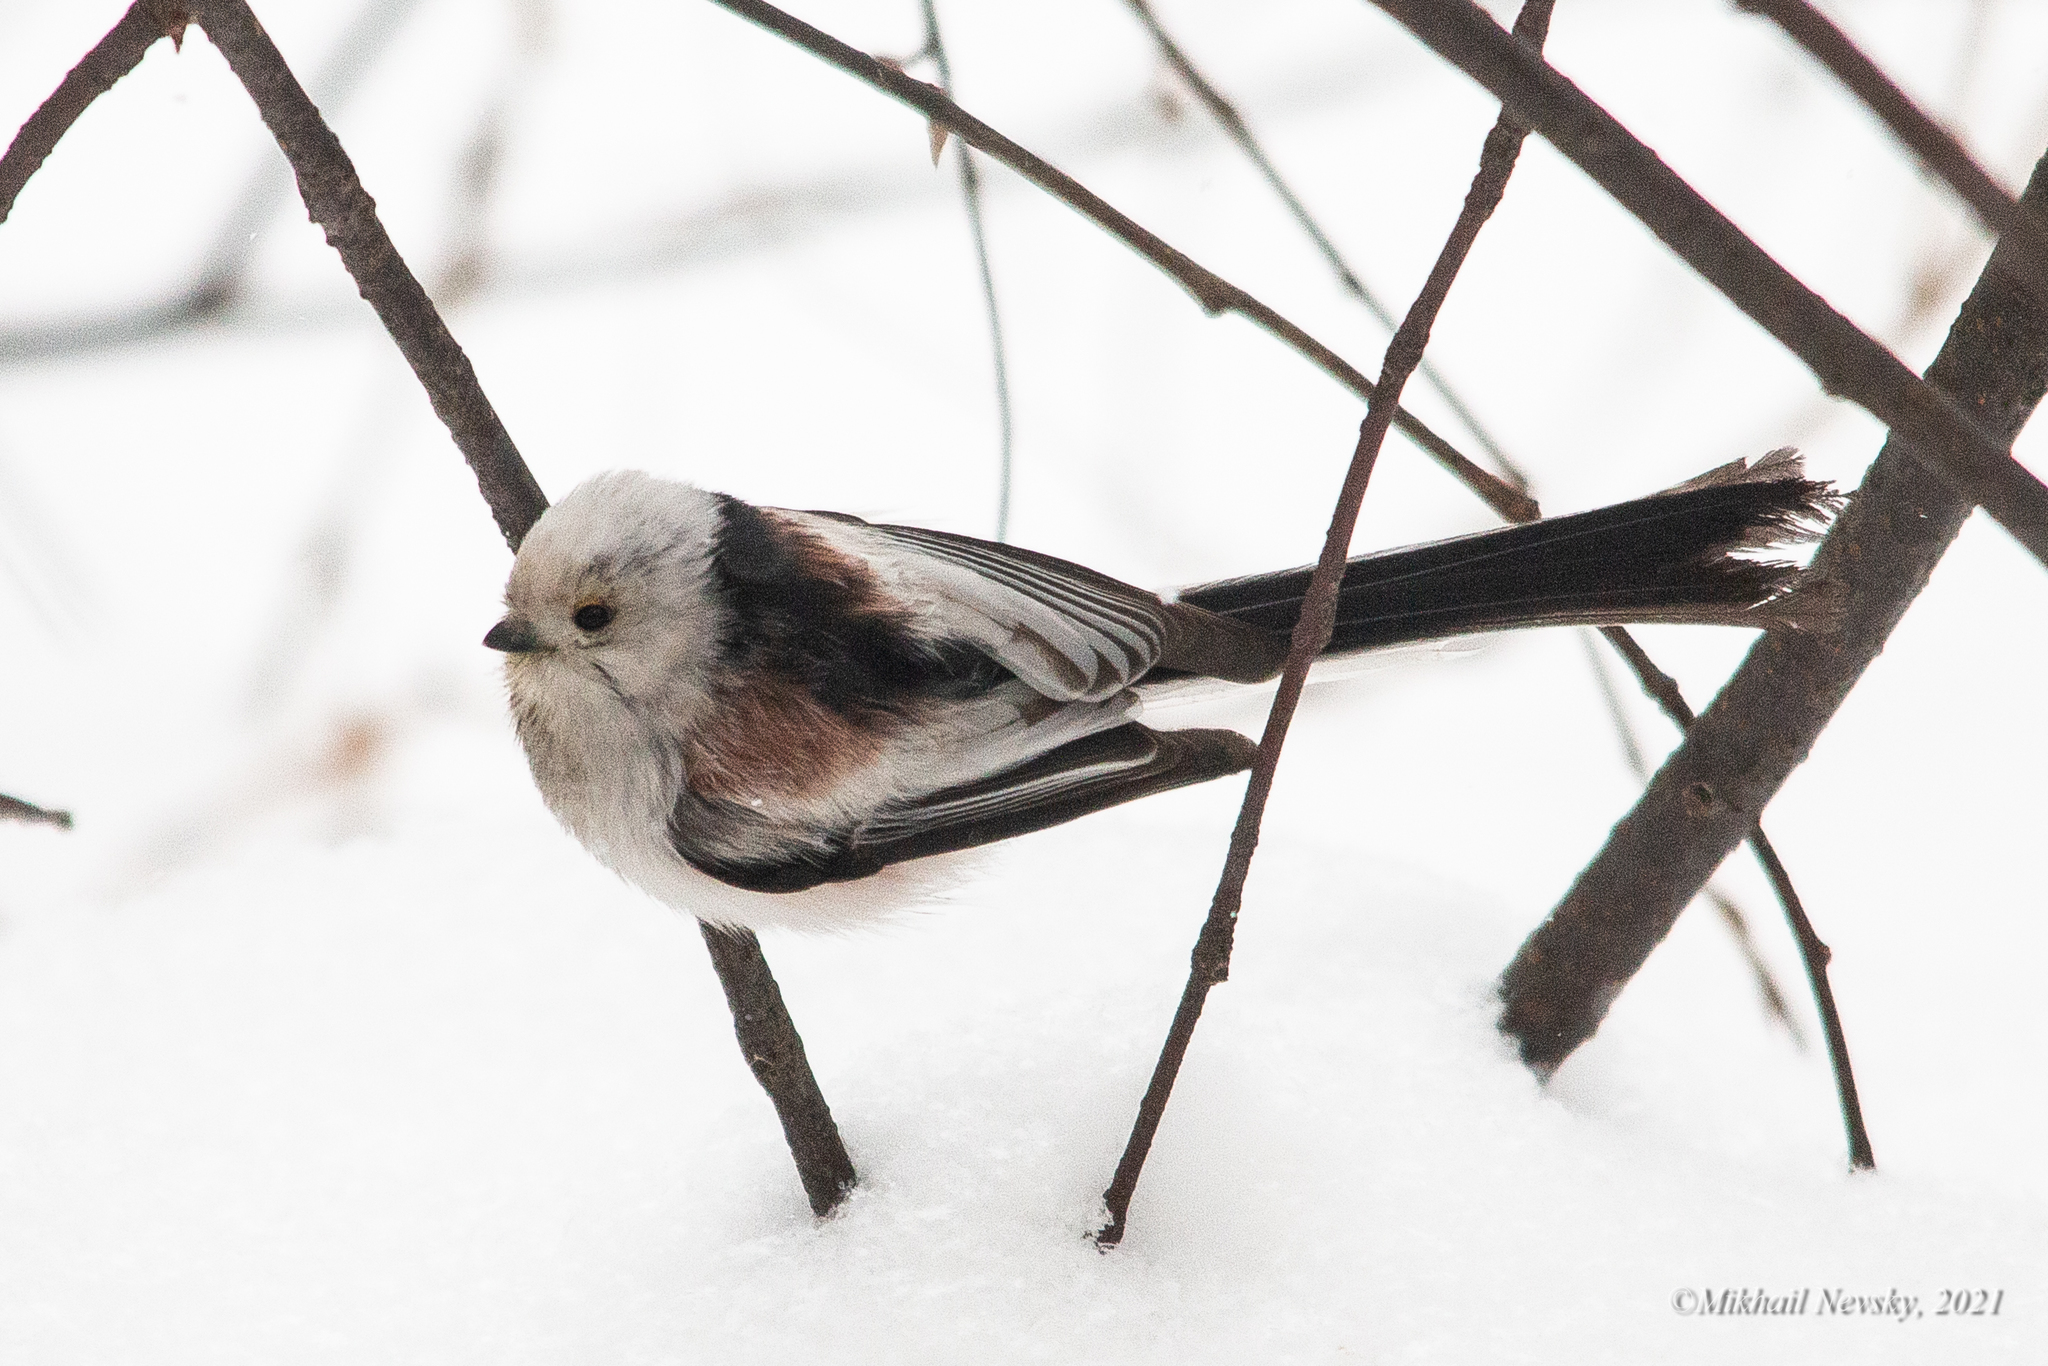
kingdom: Animalia
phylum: Chordata
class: Aves
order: Passeriformes
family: Aegithalidae
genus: Aegithalos
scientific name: Aegithalos caudatus
